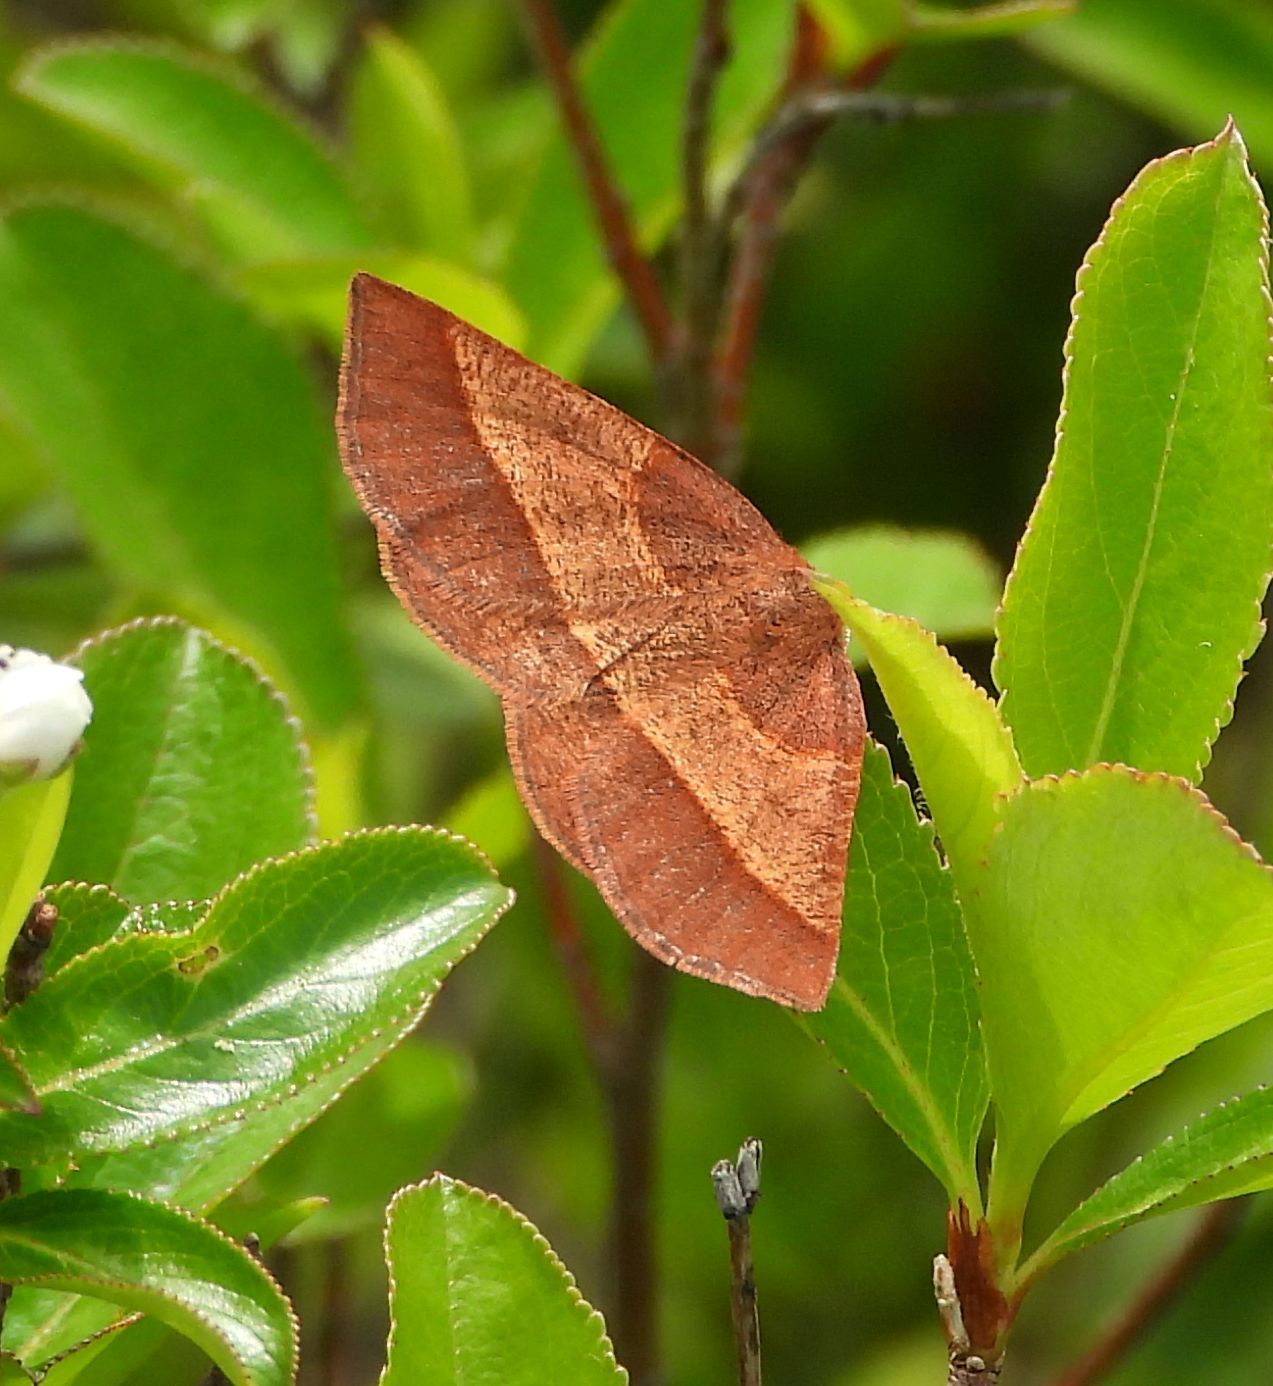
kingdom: Animalia
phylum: Arthropoda
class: Insecta
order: Lepidoptera
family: Geometridae
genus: Metarranthis
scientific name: Metarranthis obfirmaria
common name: Yellow-washed metarranthis
